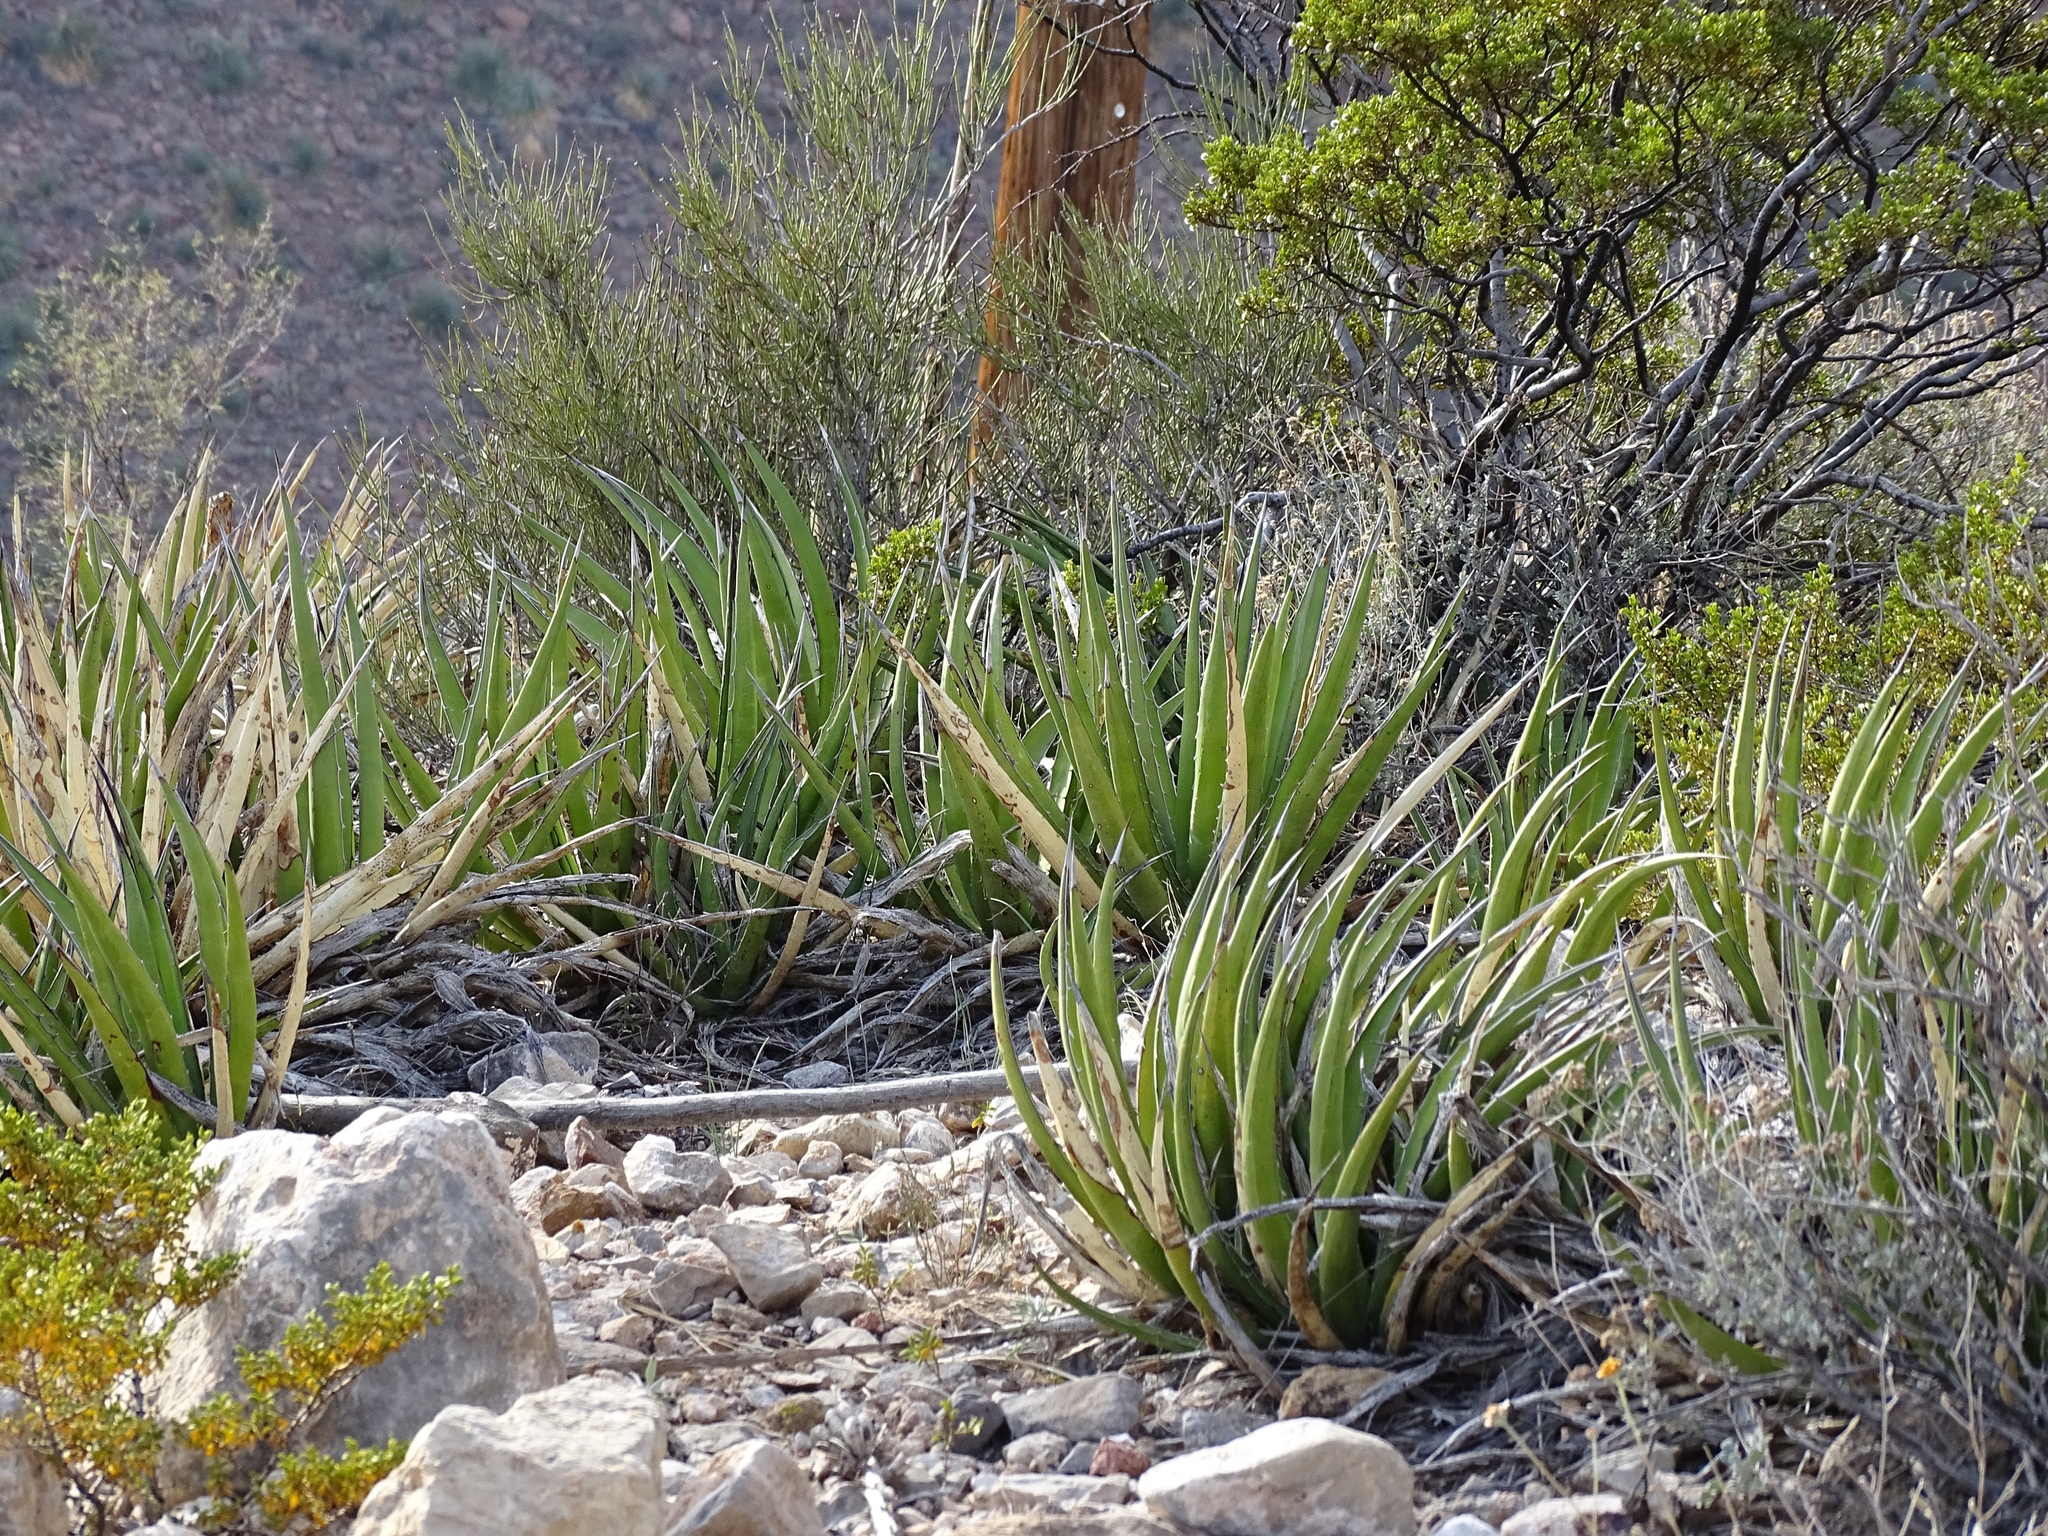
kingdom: Plantae
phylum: Tracheophyta
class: Liliopsida
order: Asparagales
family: Asparagaceae
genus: Agave
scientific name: Agave lechuguilla
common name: Lecheguilla agave
